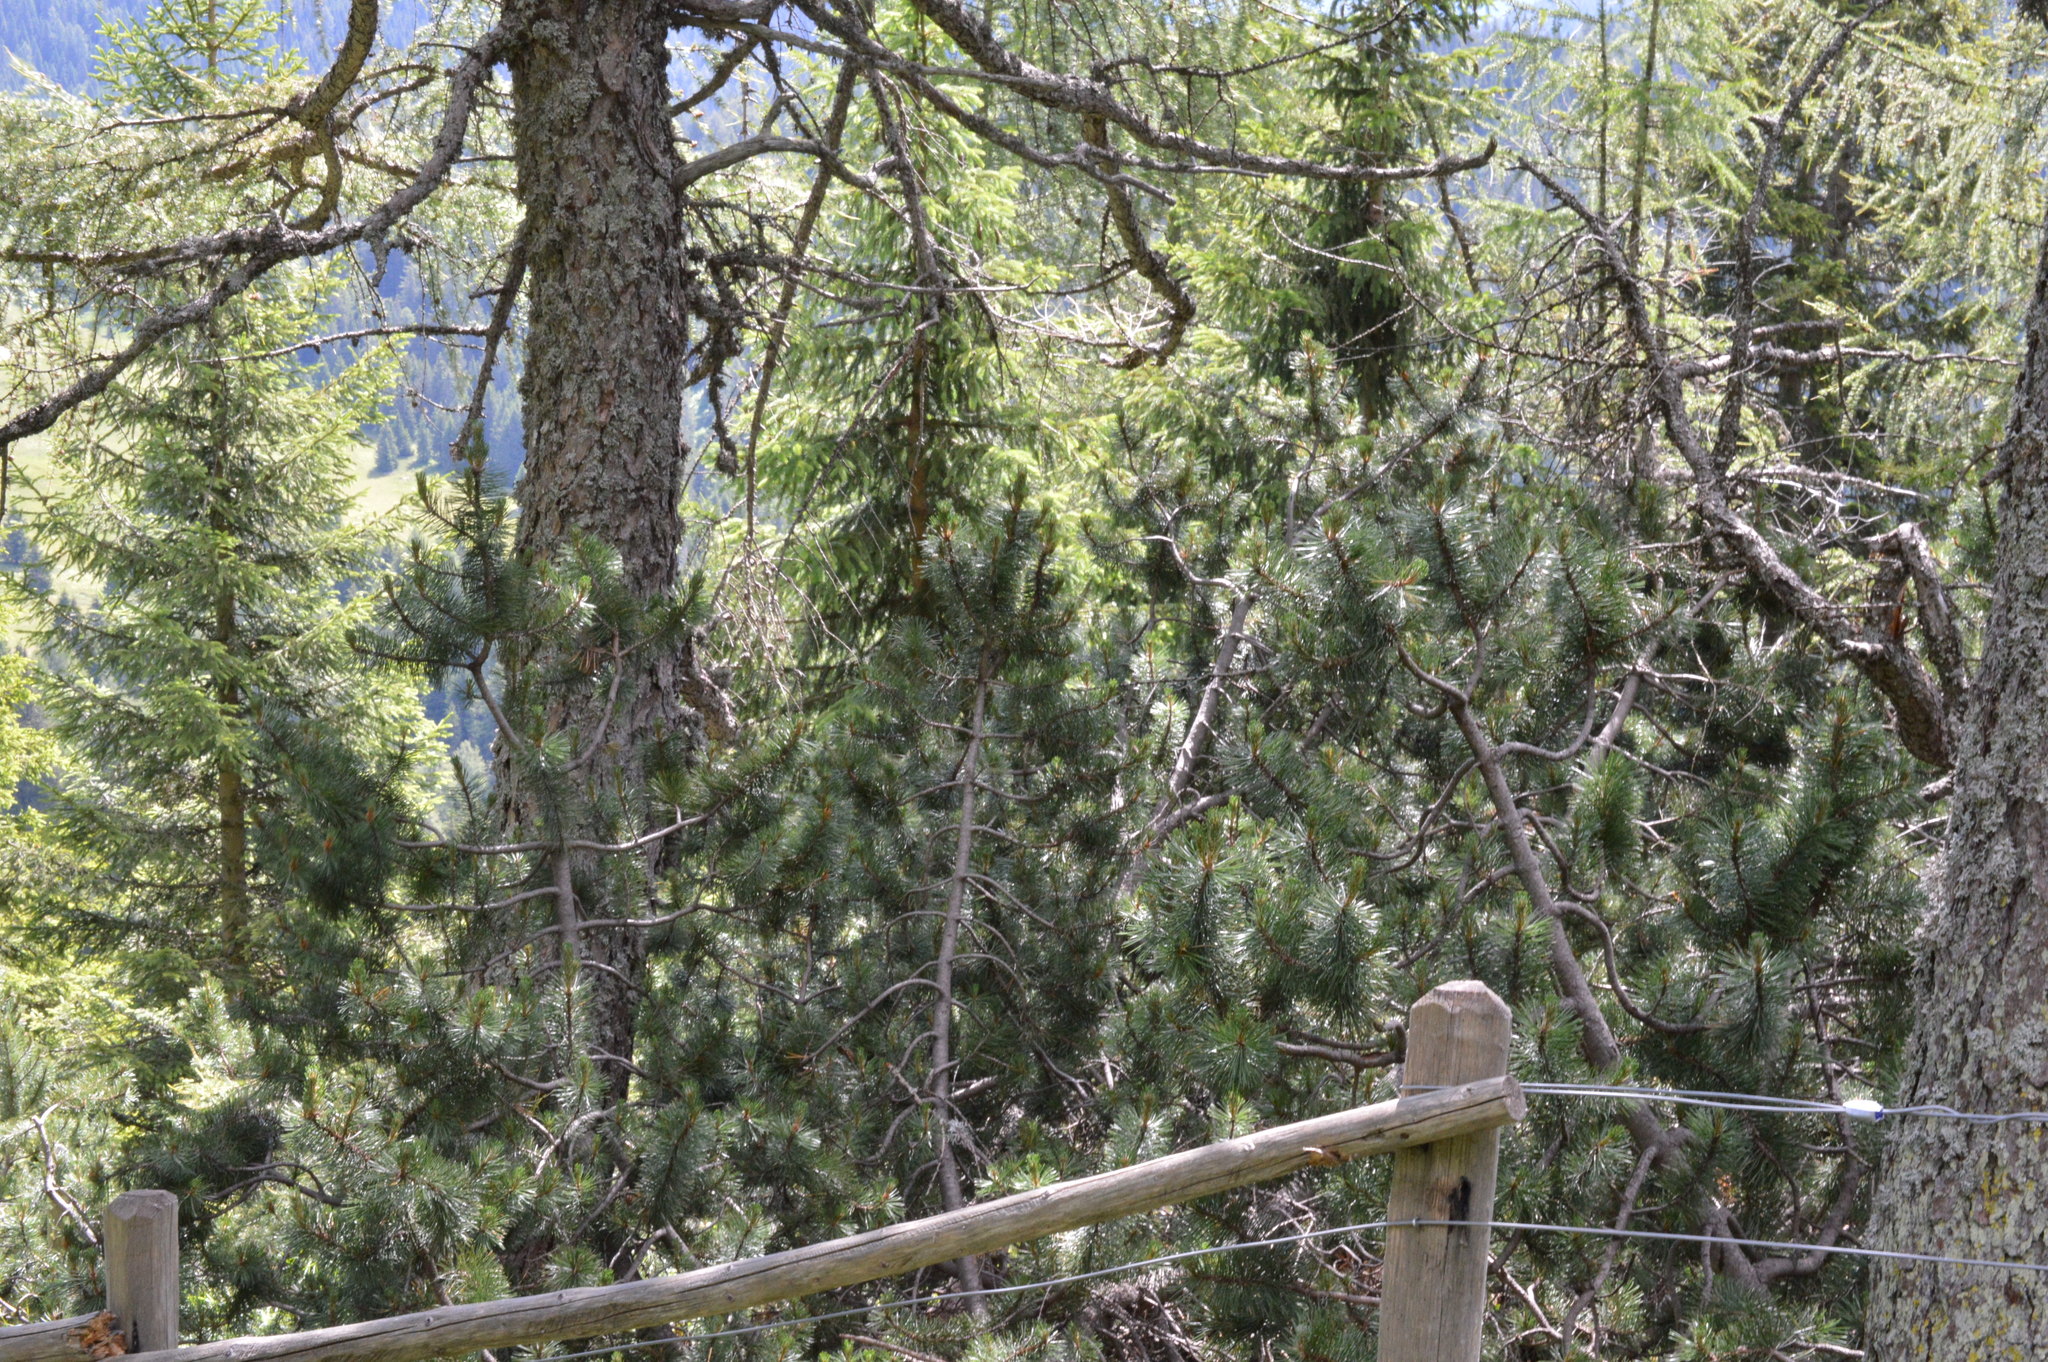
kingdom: Plantae
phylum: Tracheophyta
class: Pinopsida
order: Pinales
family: Pinaceae
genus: Pinus
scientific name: Pinus mugo
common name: Mugo pine
